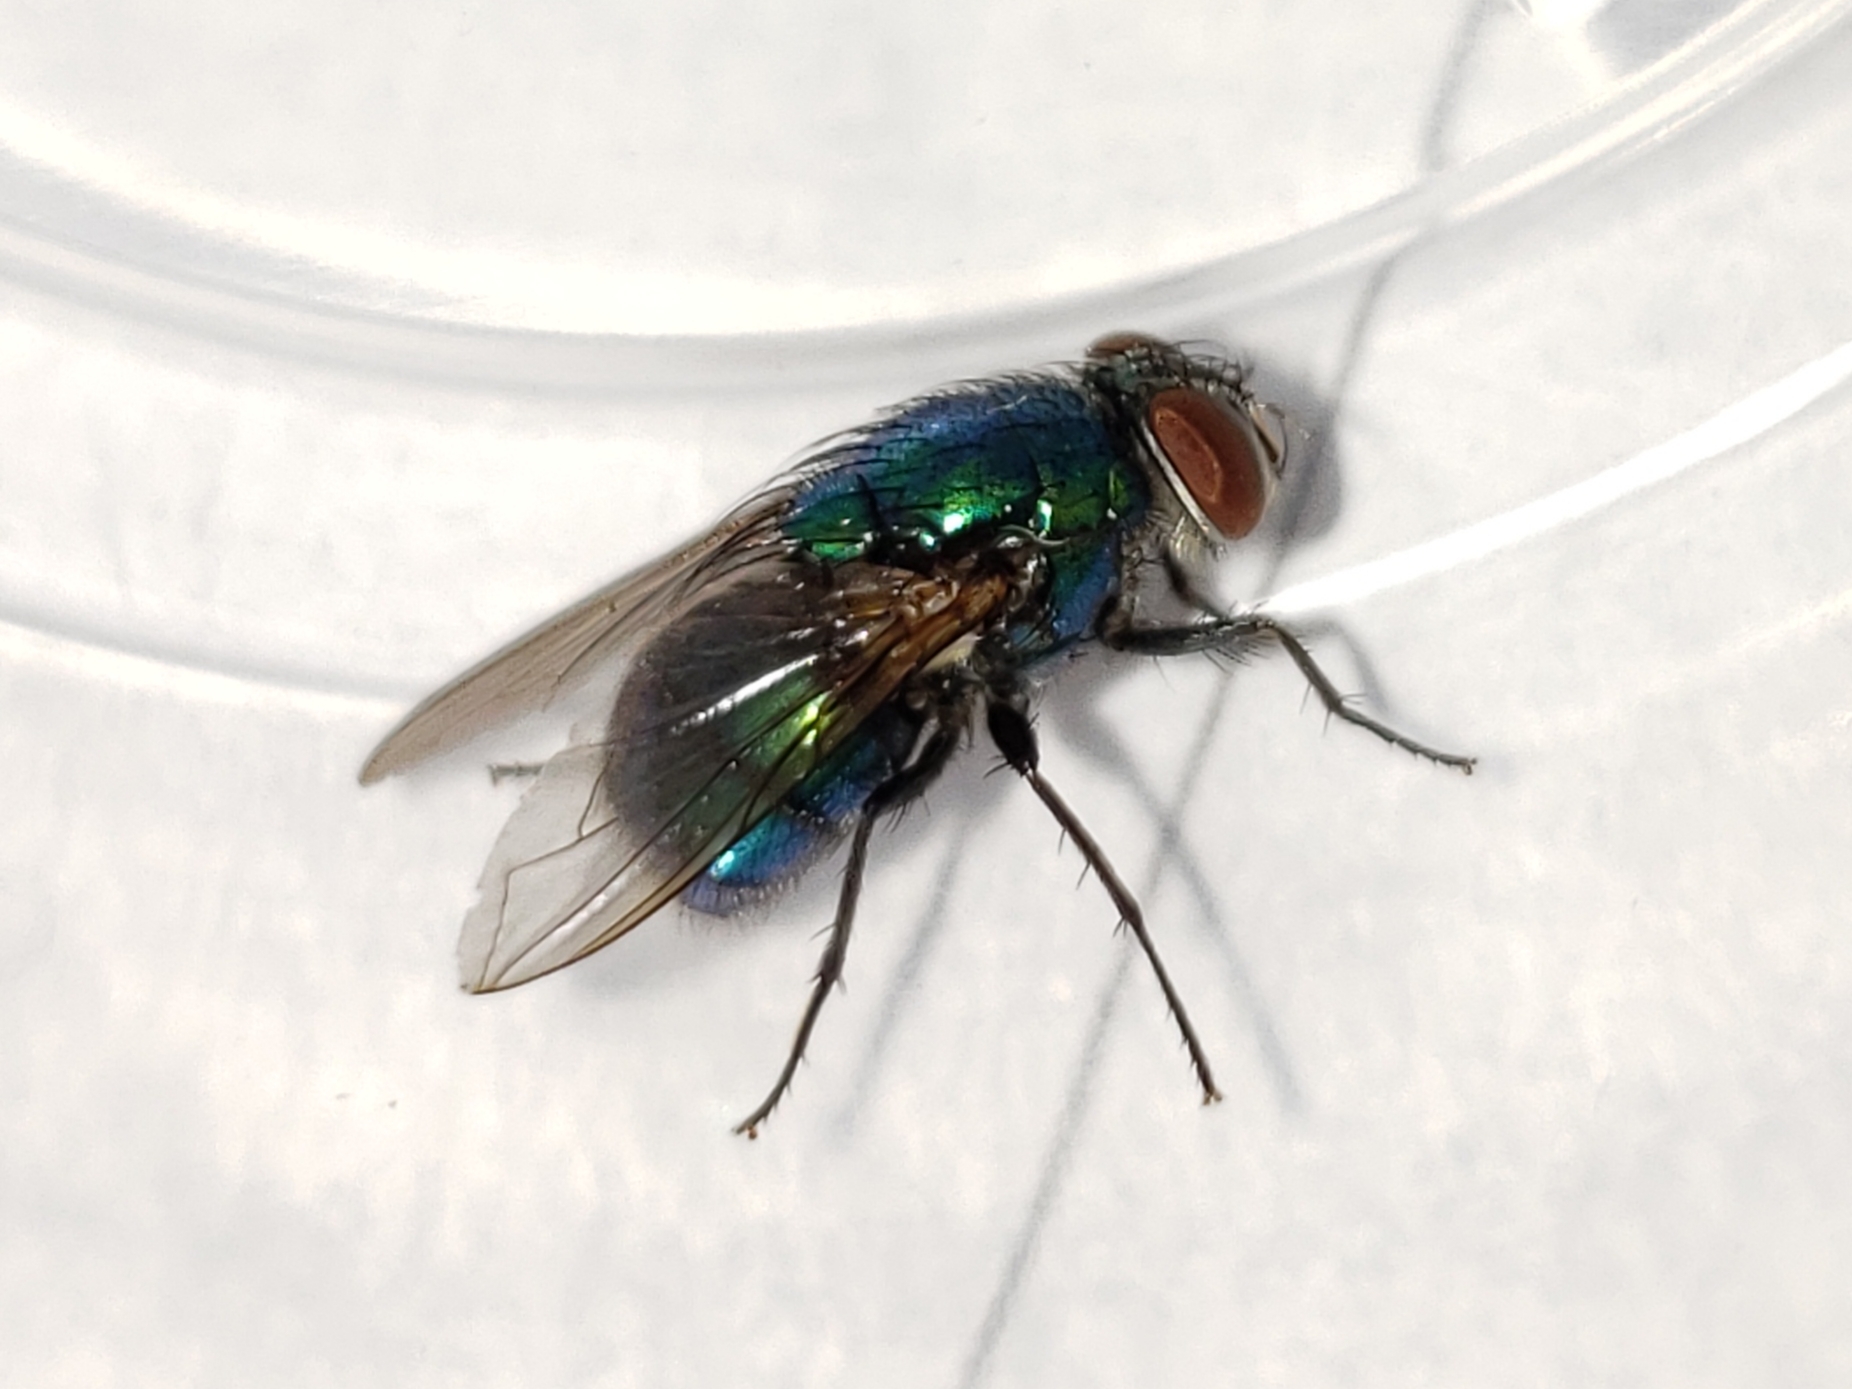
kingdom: Animalia
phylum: Arthropoda
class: Insecta
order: Diptera
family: Calliphoridae
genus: Lucilia
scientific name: Lucilia caeruleiviridis
